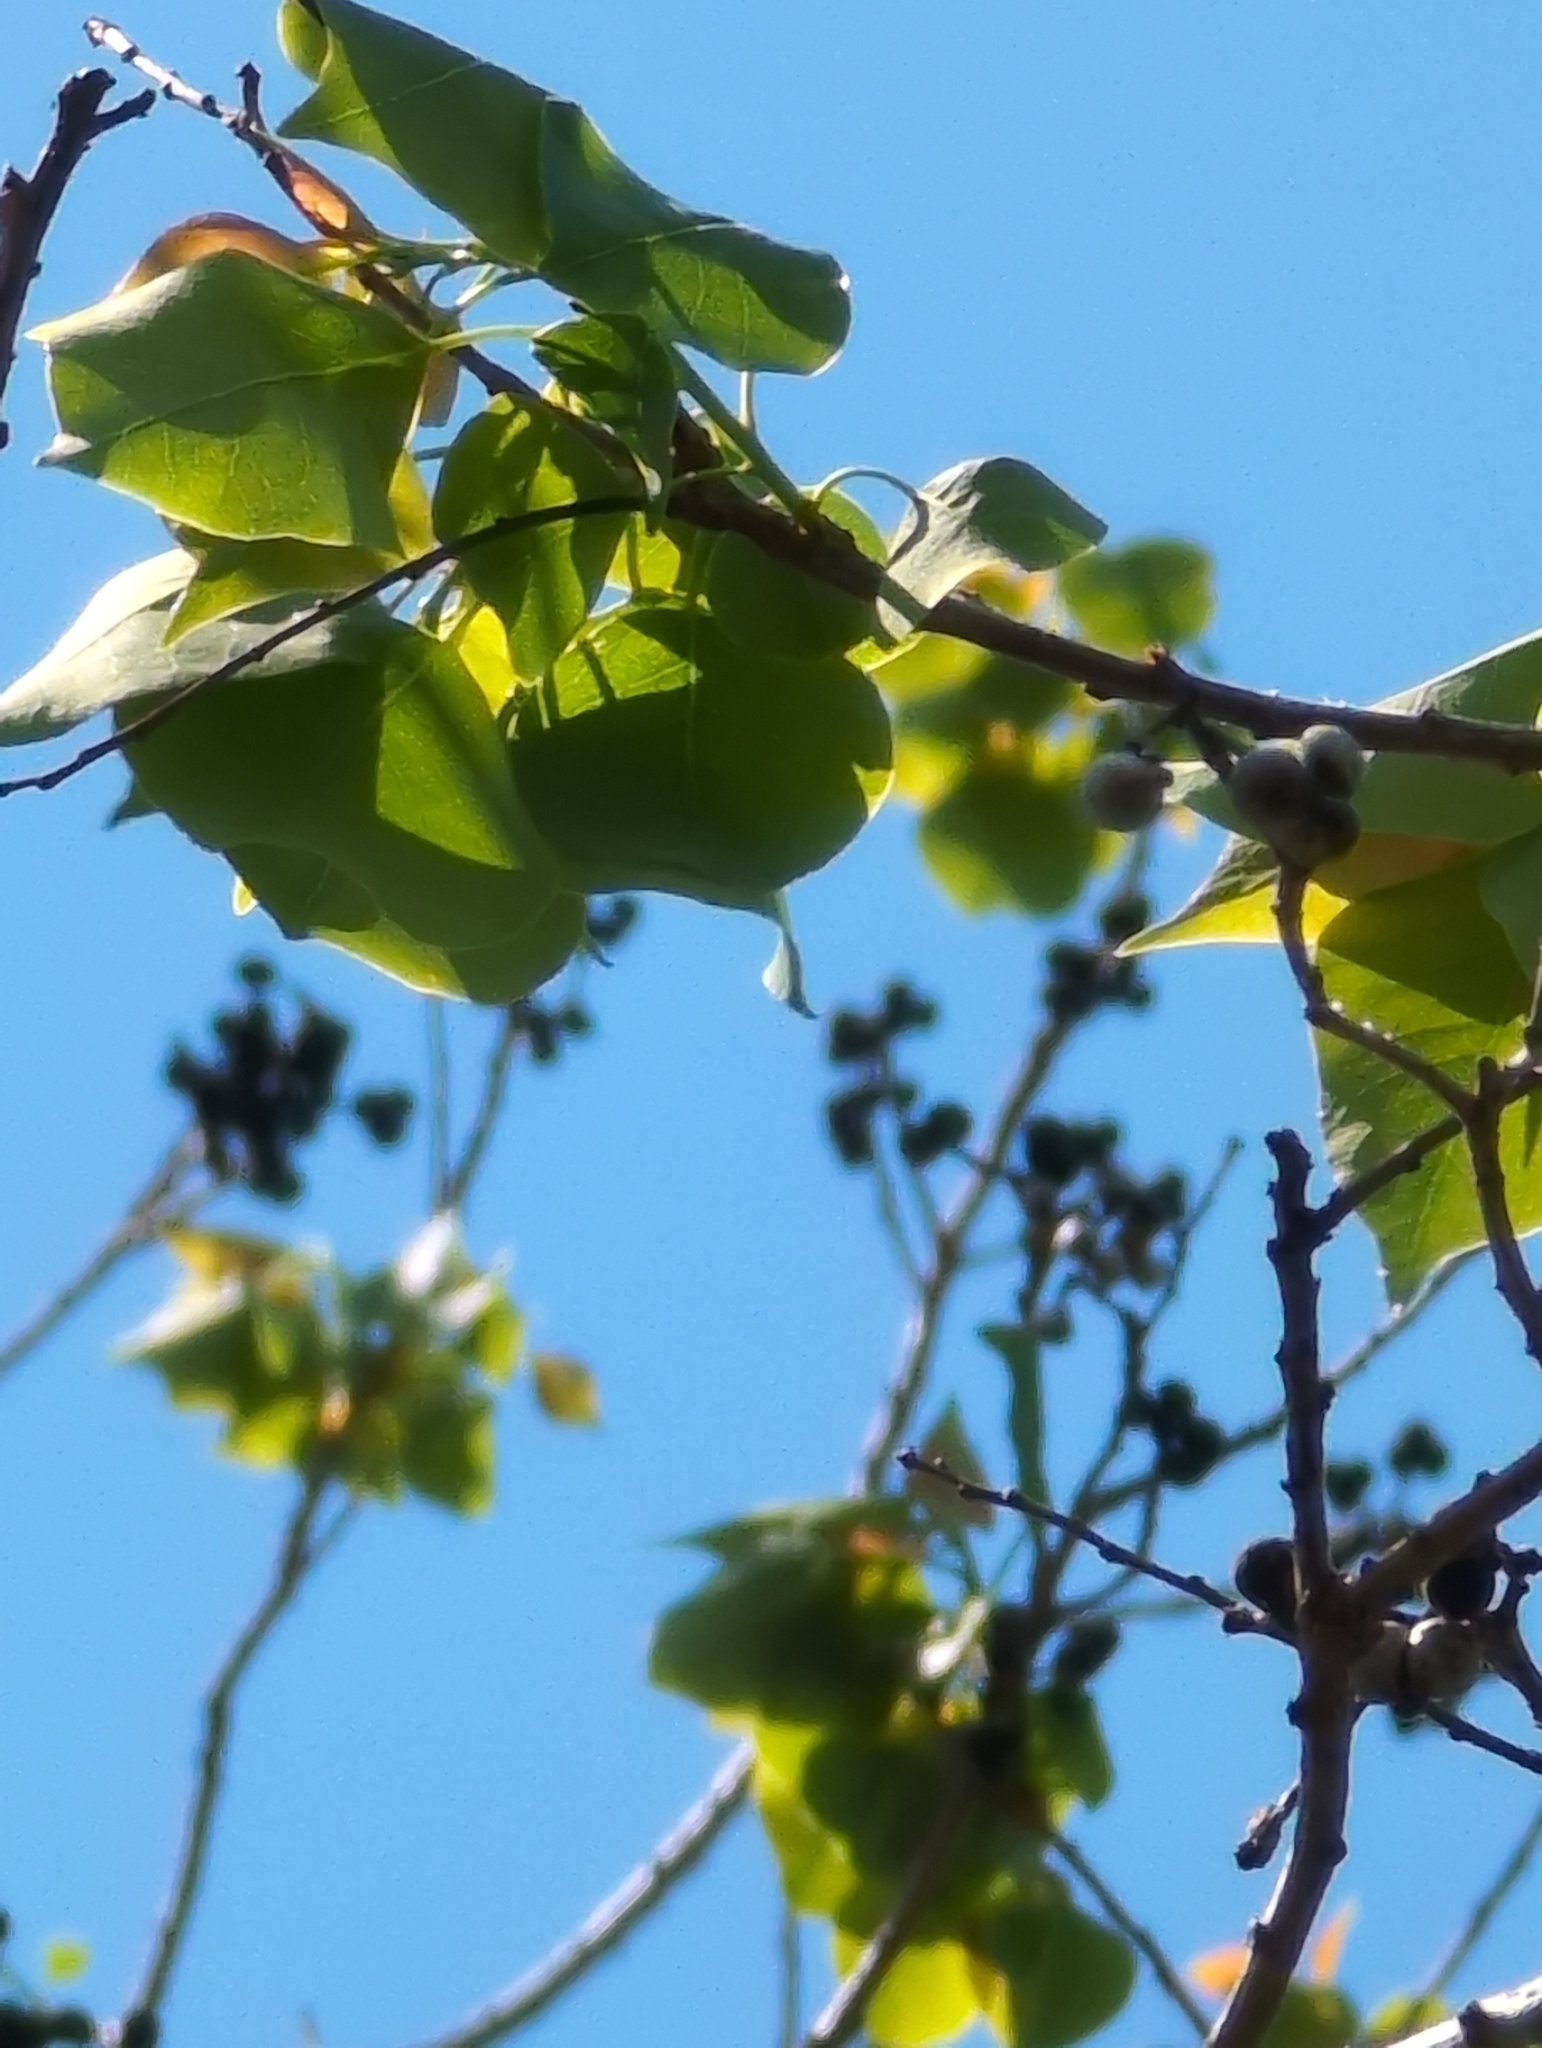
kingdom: Plantae
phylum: Tracheophyta
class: Magnoliopsida
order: Malpighiales
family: Euphorbiaceae
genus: Triadica
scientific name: Triadica sebifera
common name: Chinese tallow
